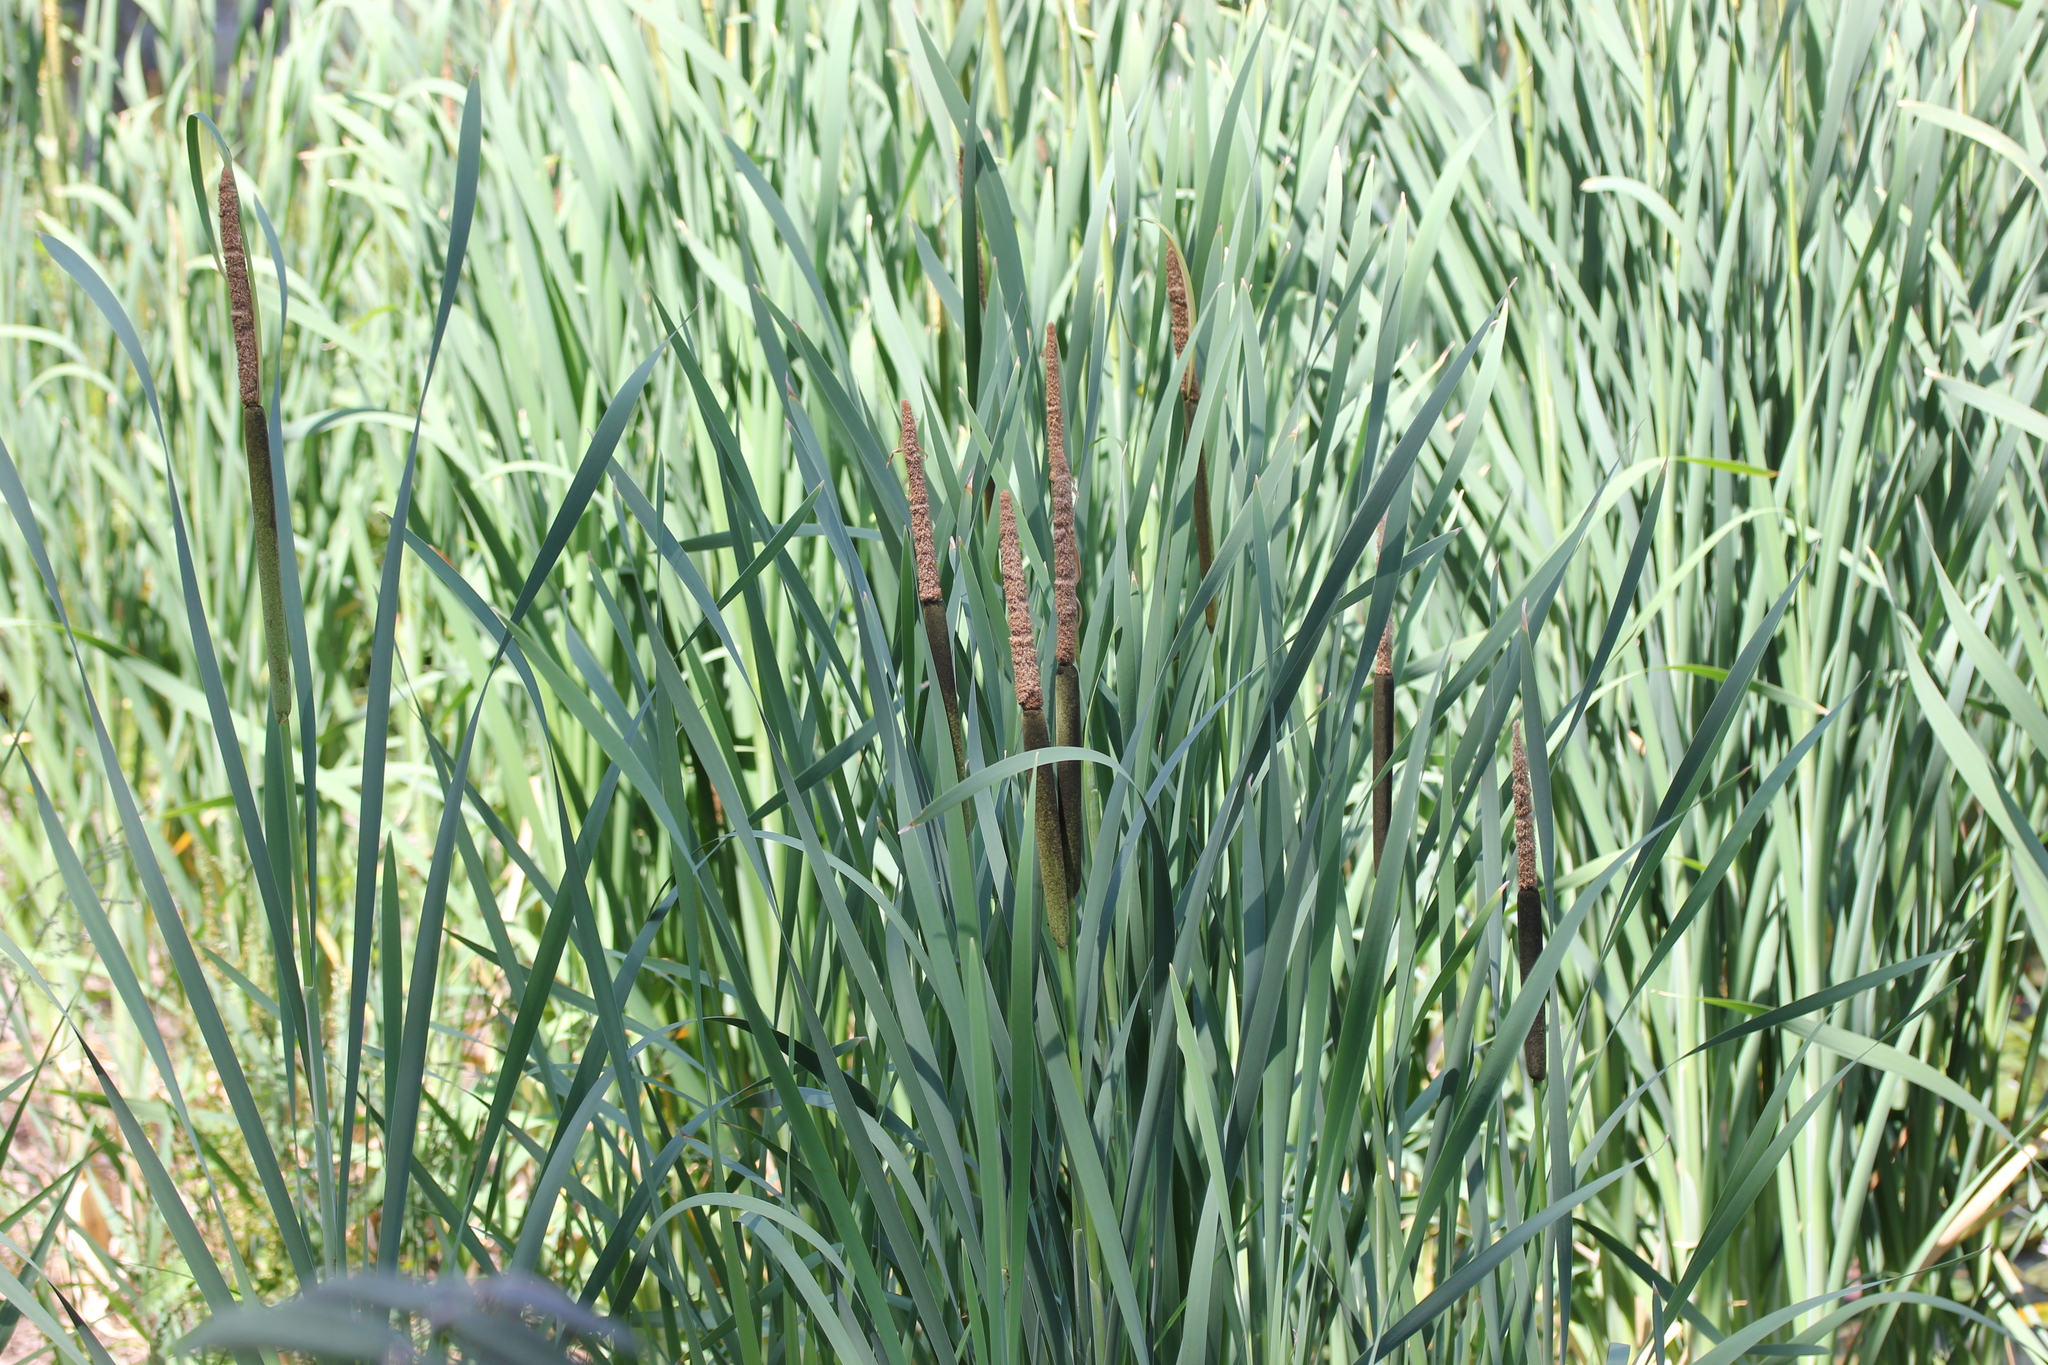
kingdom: Plantae
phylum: Tracheophyta
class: Liliopsida
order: Poales
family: Typhaceae
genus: Typha
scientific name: Typha latifolia
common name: Broadleaf cattail
